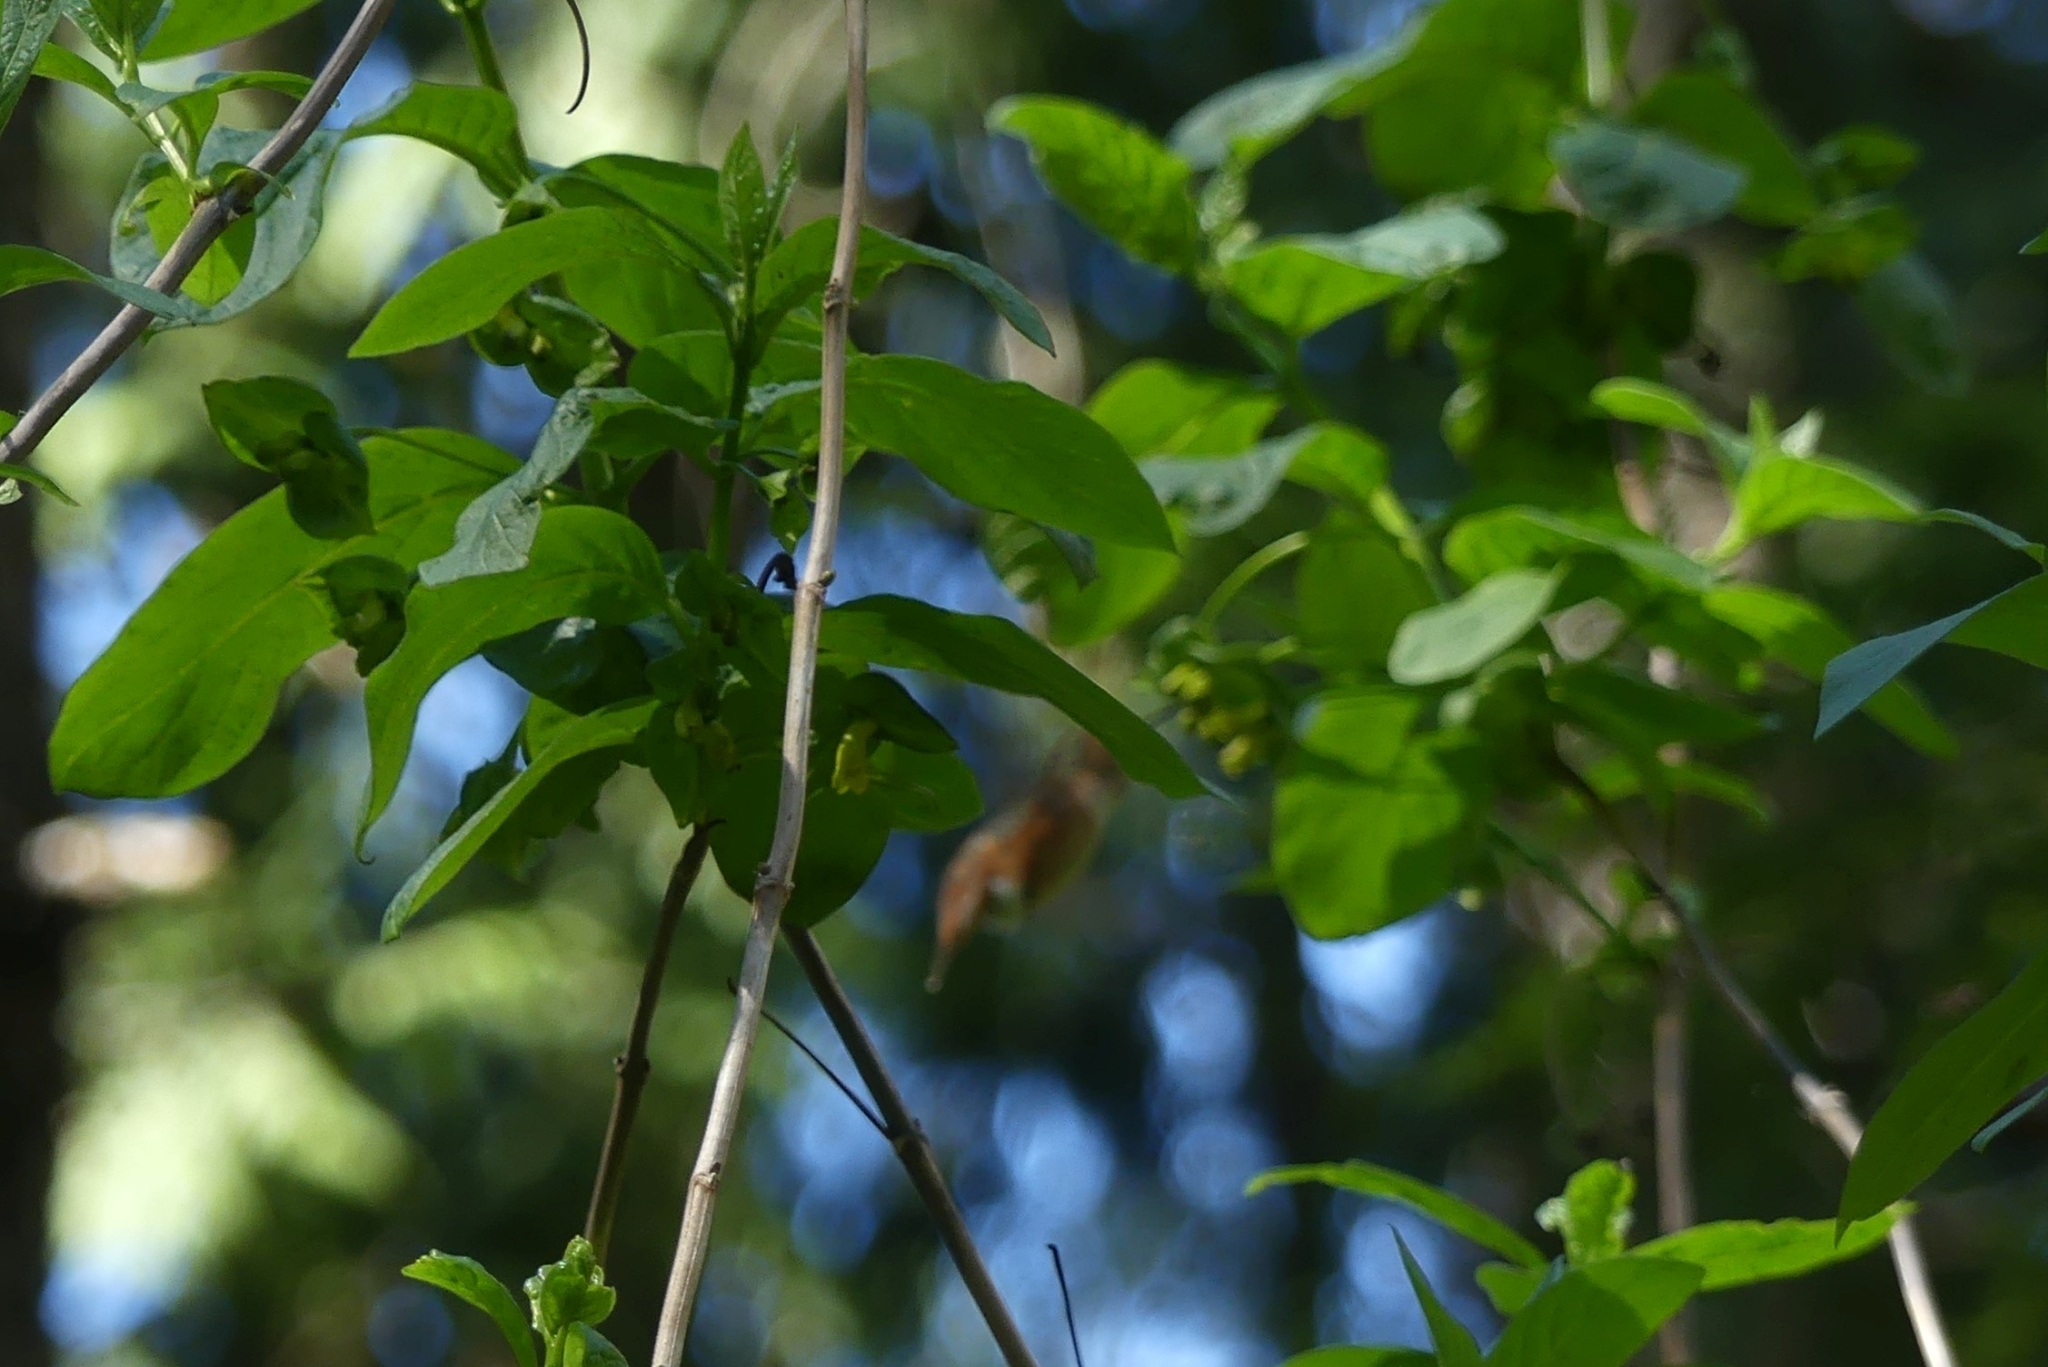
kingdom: Animalia
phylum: Chordata
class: Aves
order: Apodiformes
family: Trochilidae
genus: Selasphorus
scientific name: Selasphorus rufus
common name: Rufous hummingbird
